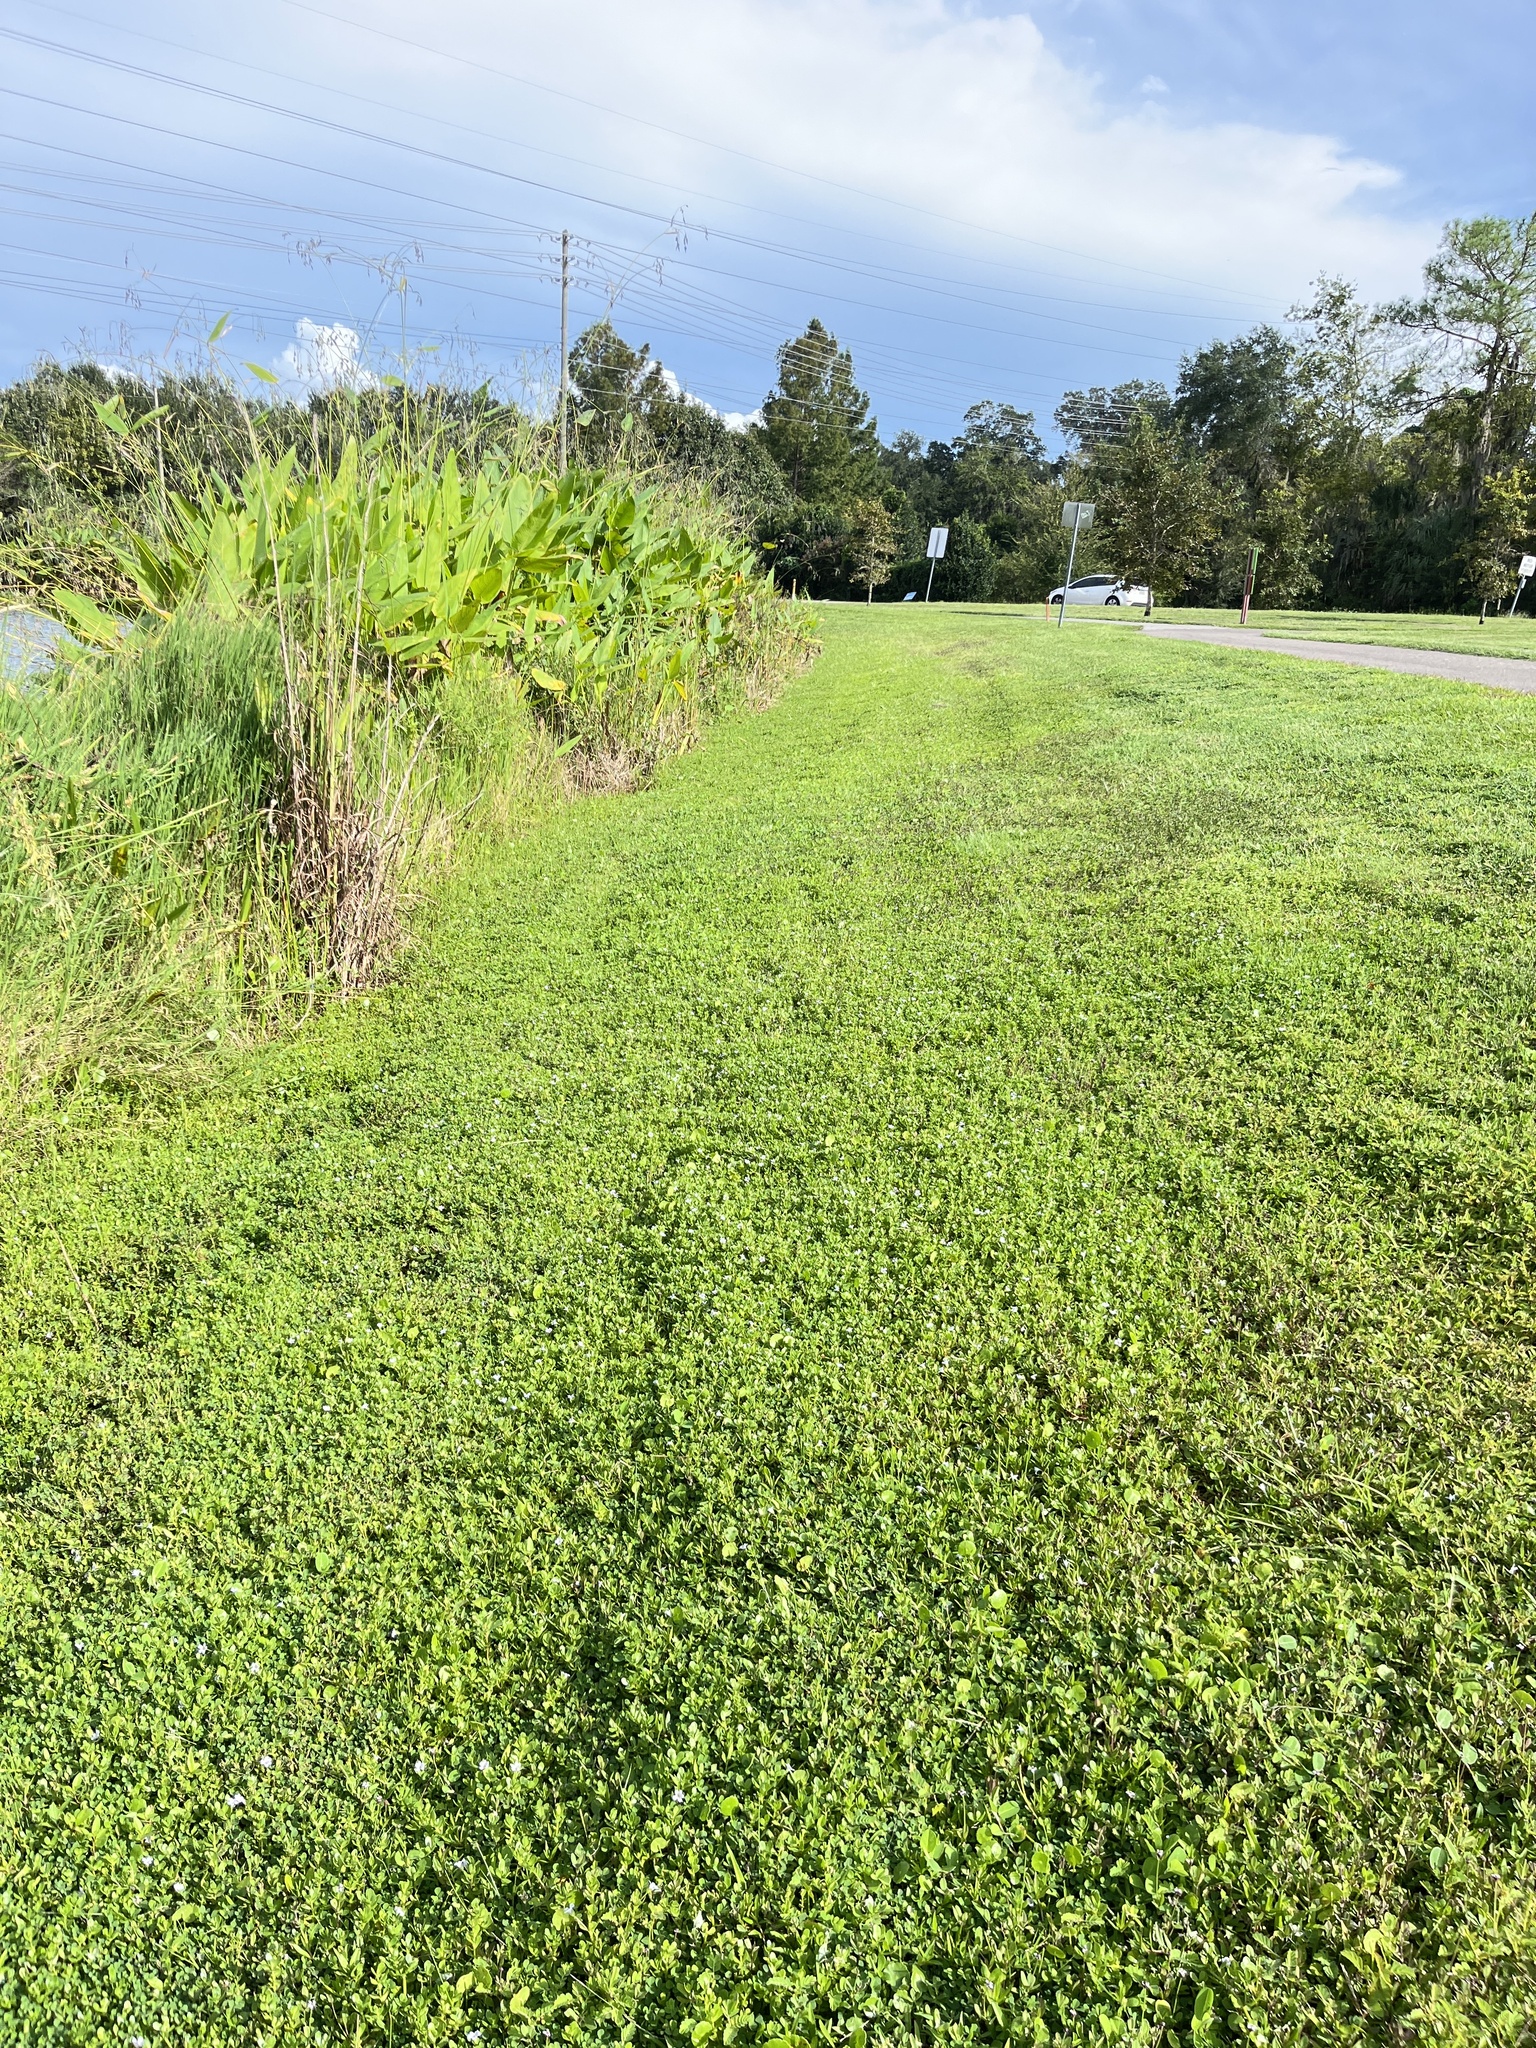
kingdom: Plantae
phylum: Tracheophyta
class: Magnoliopsida
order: Lamiales
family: Plantaginaceae
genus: Bacopa
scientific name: Bacopa monnieri
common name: Indian-pennywort
